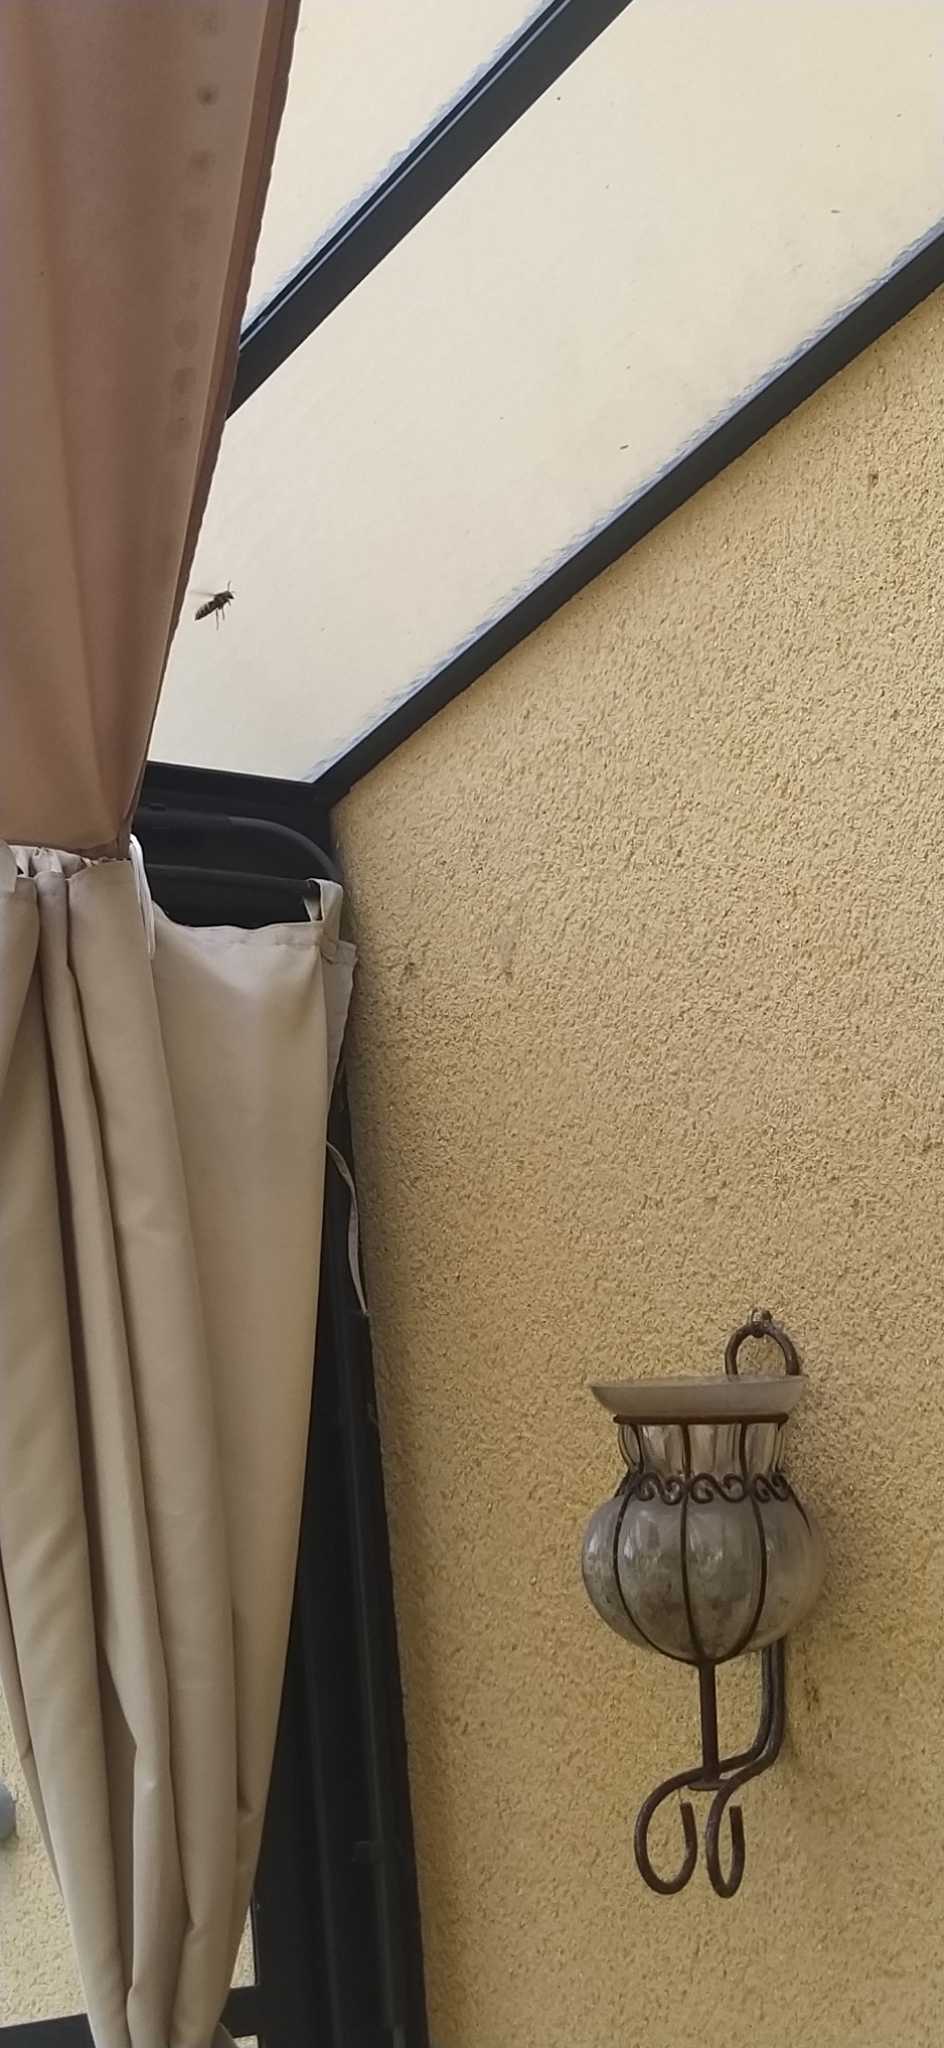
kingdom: Animalia
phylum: Arthropoda
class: Insecta
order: Hymenoptera
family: Vespidae
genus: Vespa
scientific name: Vespa crabro
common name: Hornet
